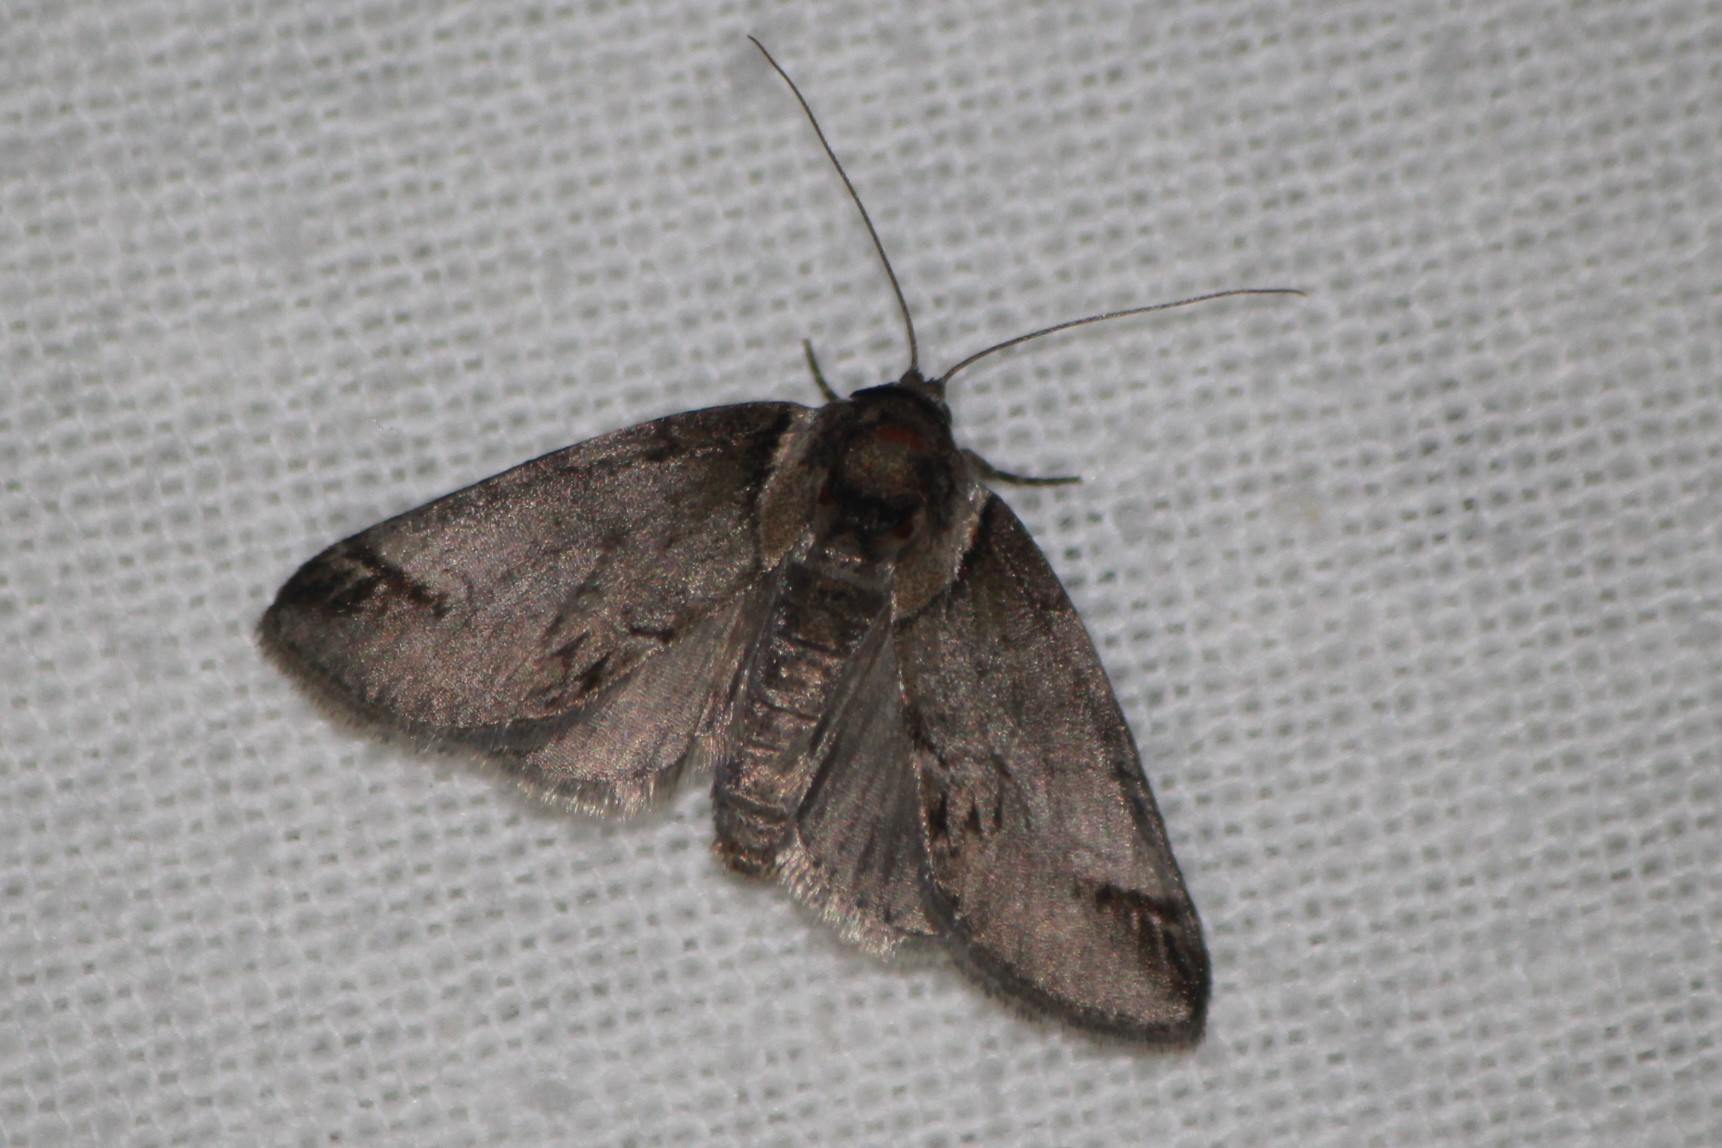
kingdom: Animalia
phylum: Arthropoda
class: Insecta
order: Lepidoptera
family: Nolidae
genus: Baileya
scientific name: Baileya australis
